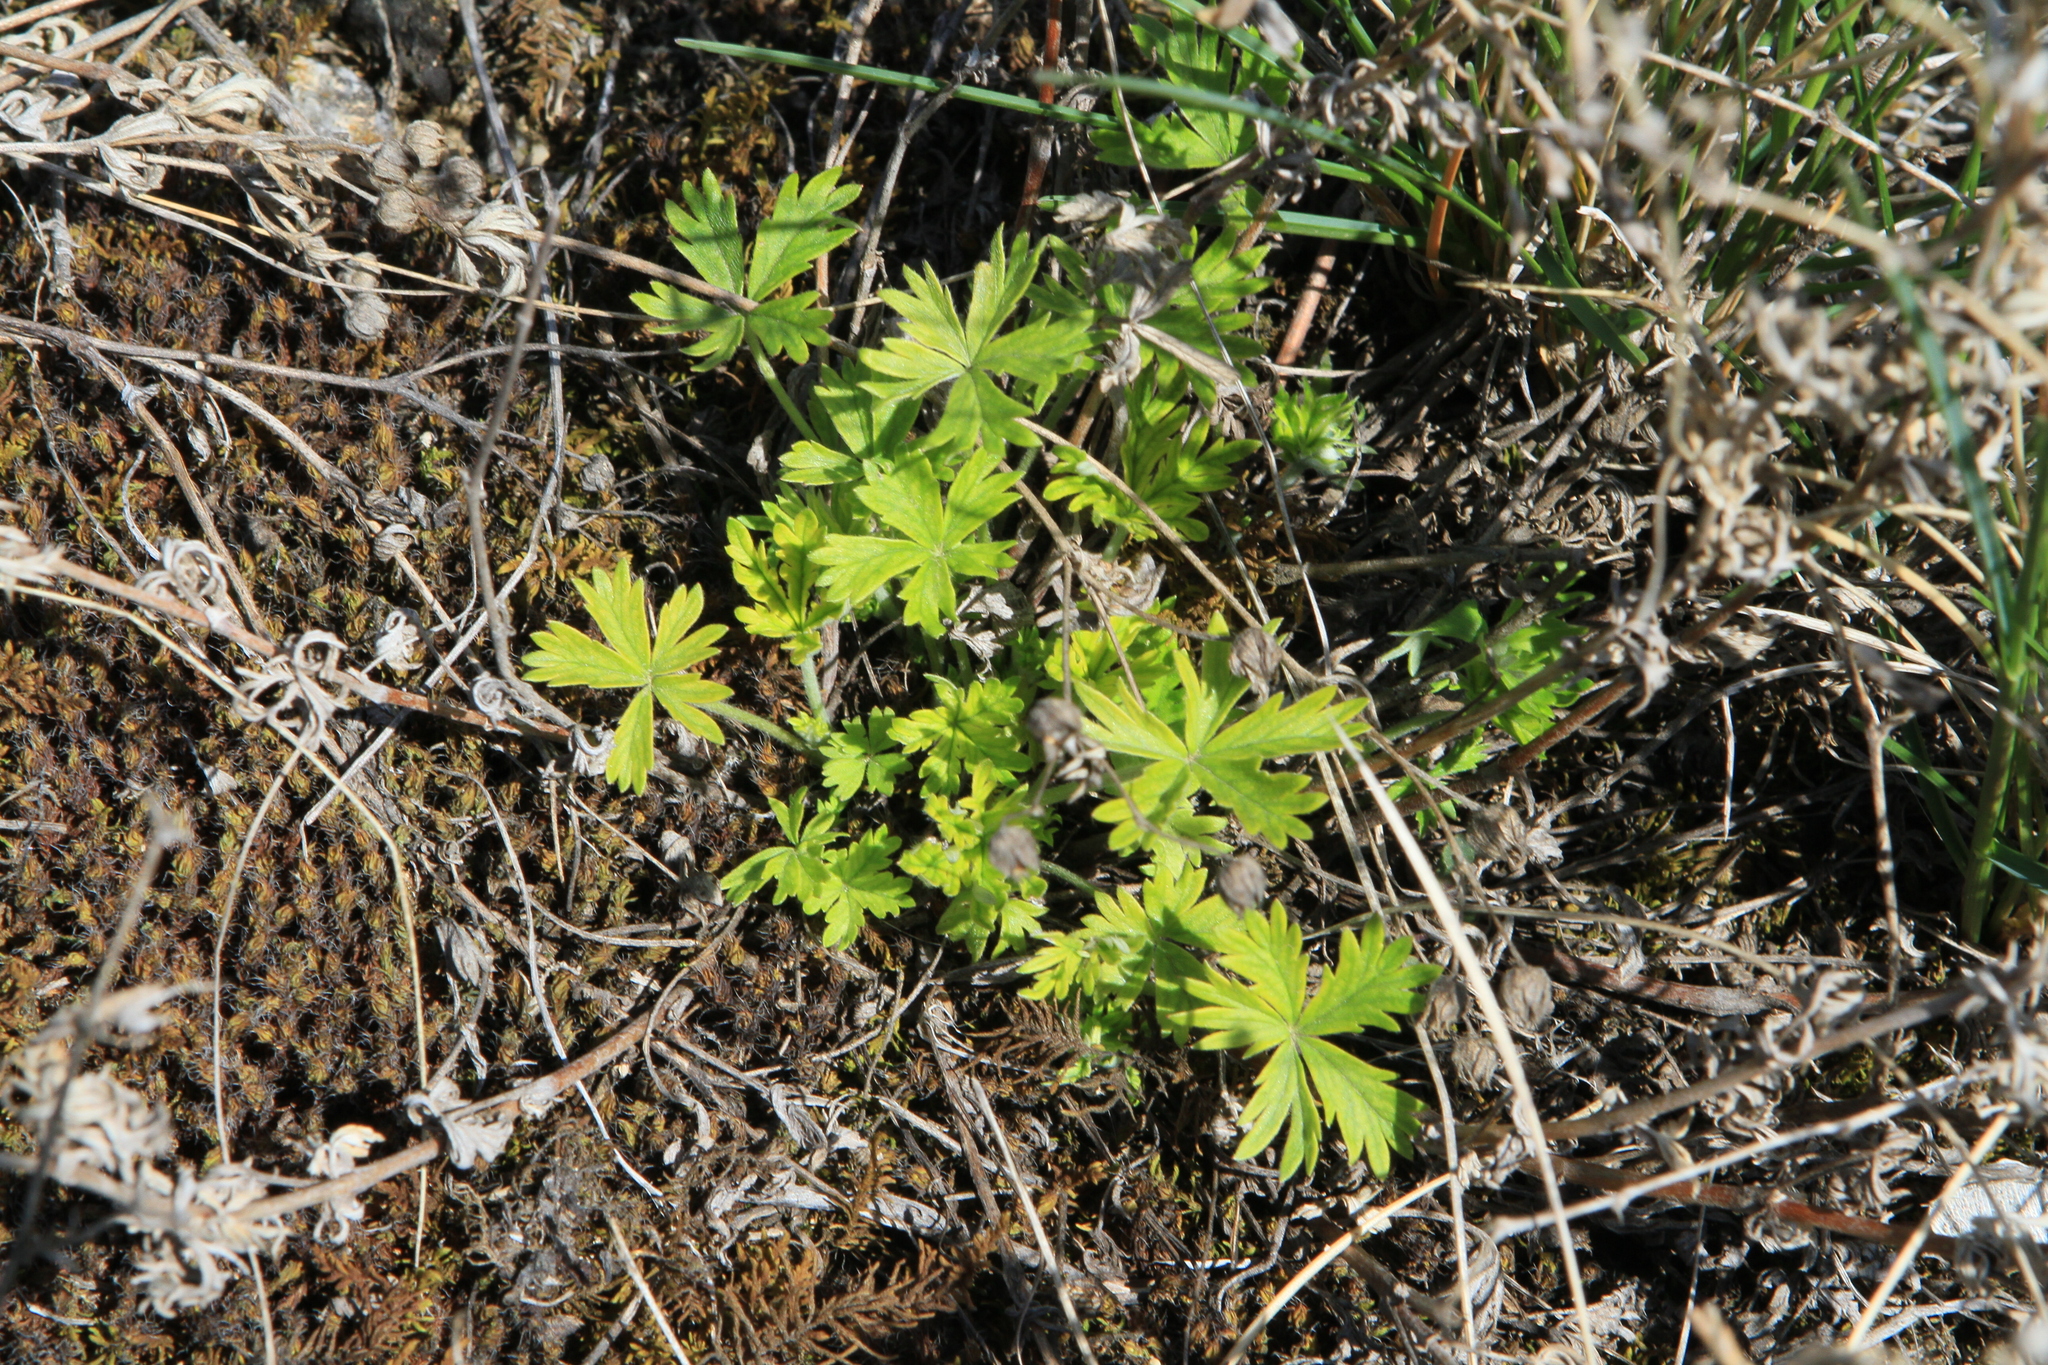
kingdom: Plantae
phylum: Tracheophyta
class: Magnoliopsida
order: Rosales
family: Rosaceae
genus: Potentilla
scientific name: Potentilla argentea
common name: Hoary cinquefoil
